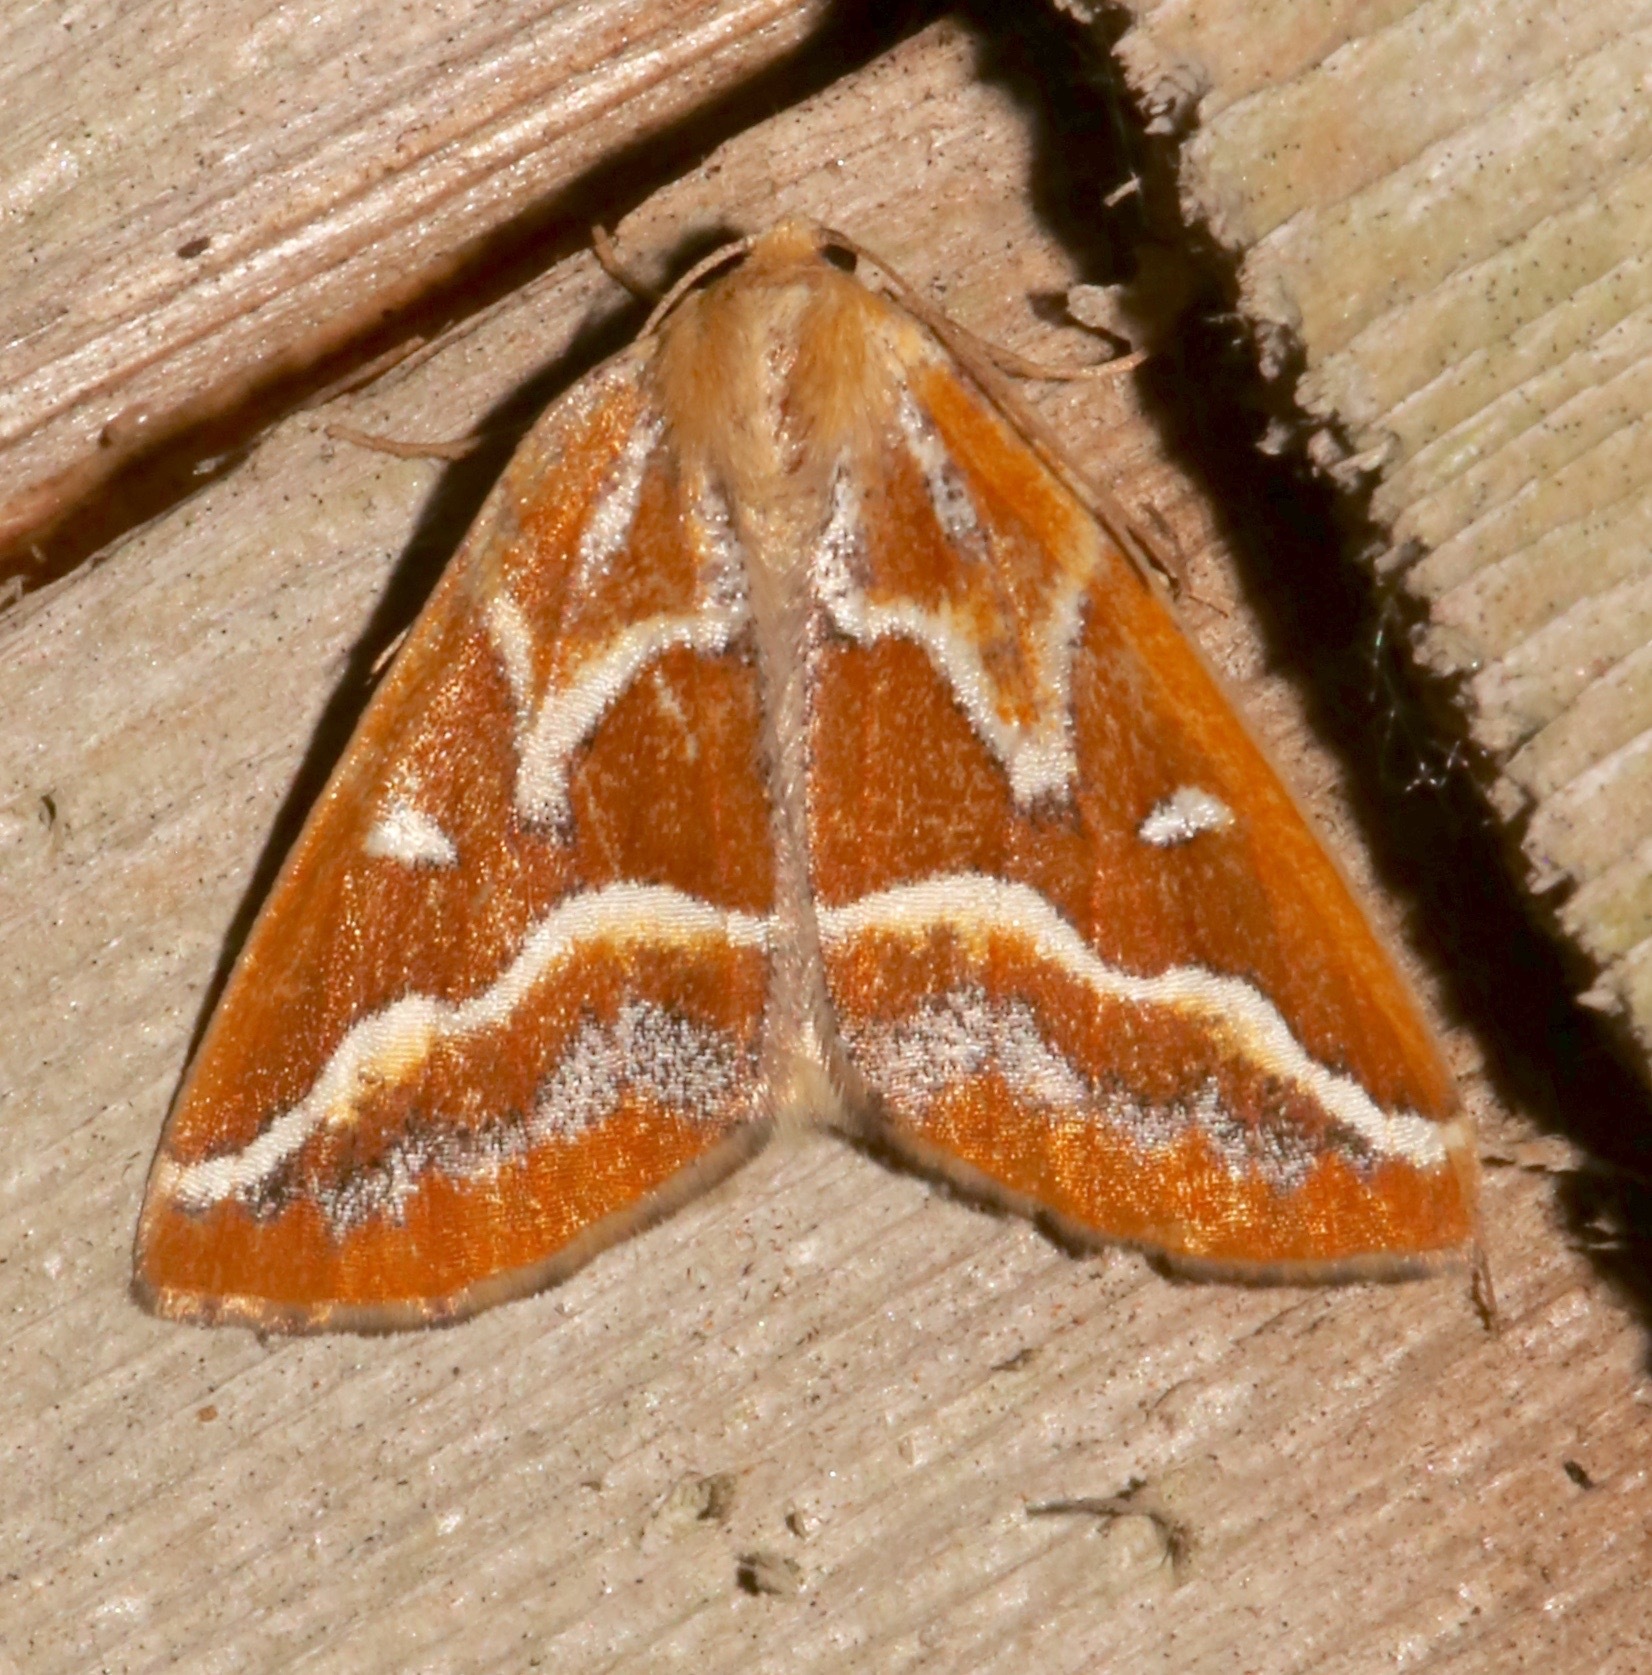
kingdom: Animalia
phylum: Arthropoda
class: Insecta
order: Lepidoptera
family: Geometridae
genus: Caripeta
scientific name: Caripeta angustiorata
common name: Brown pine looper
